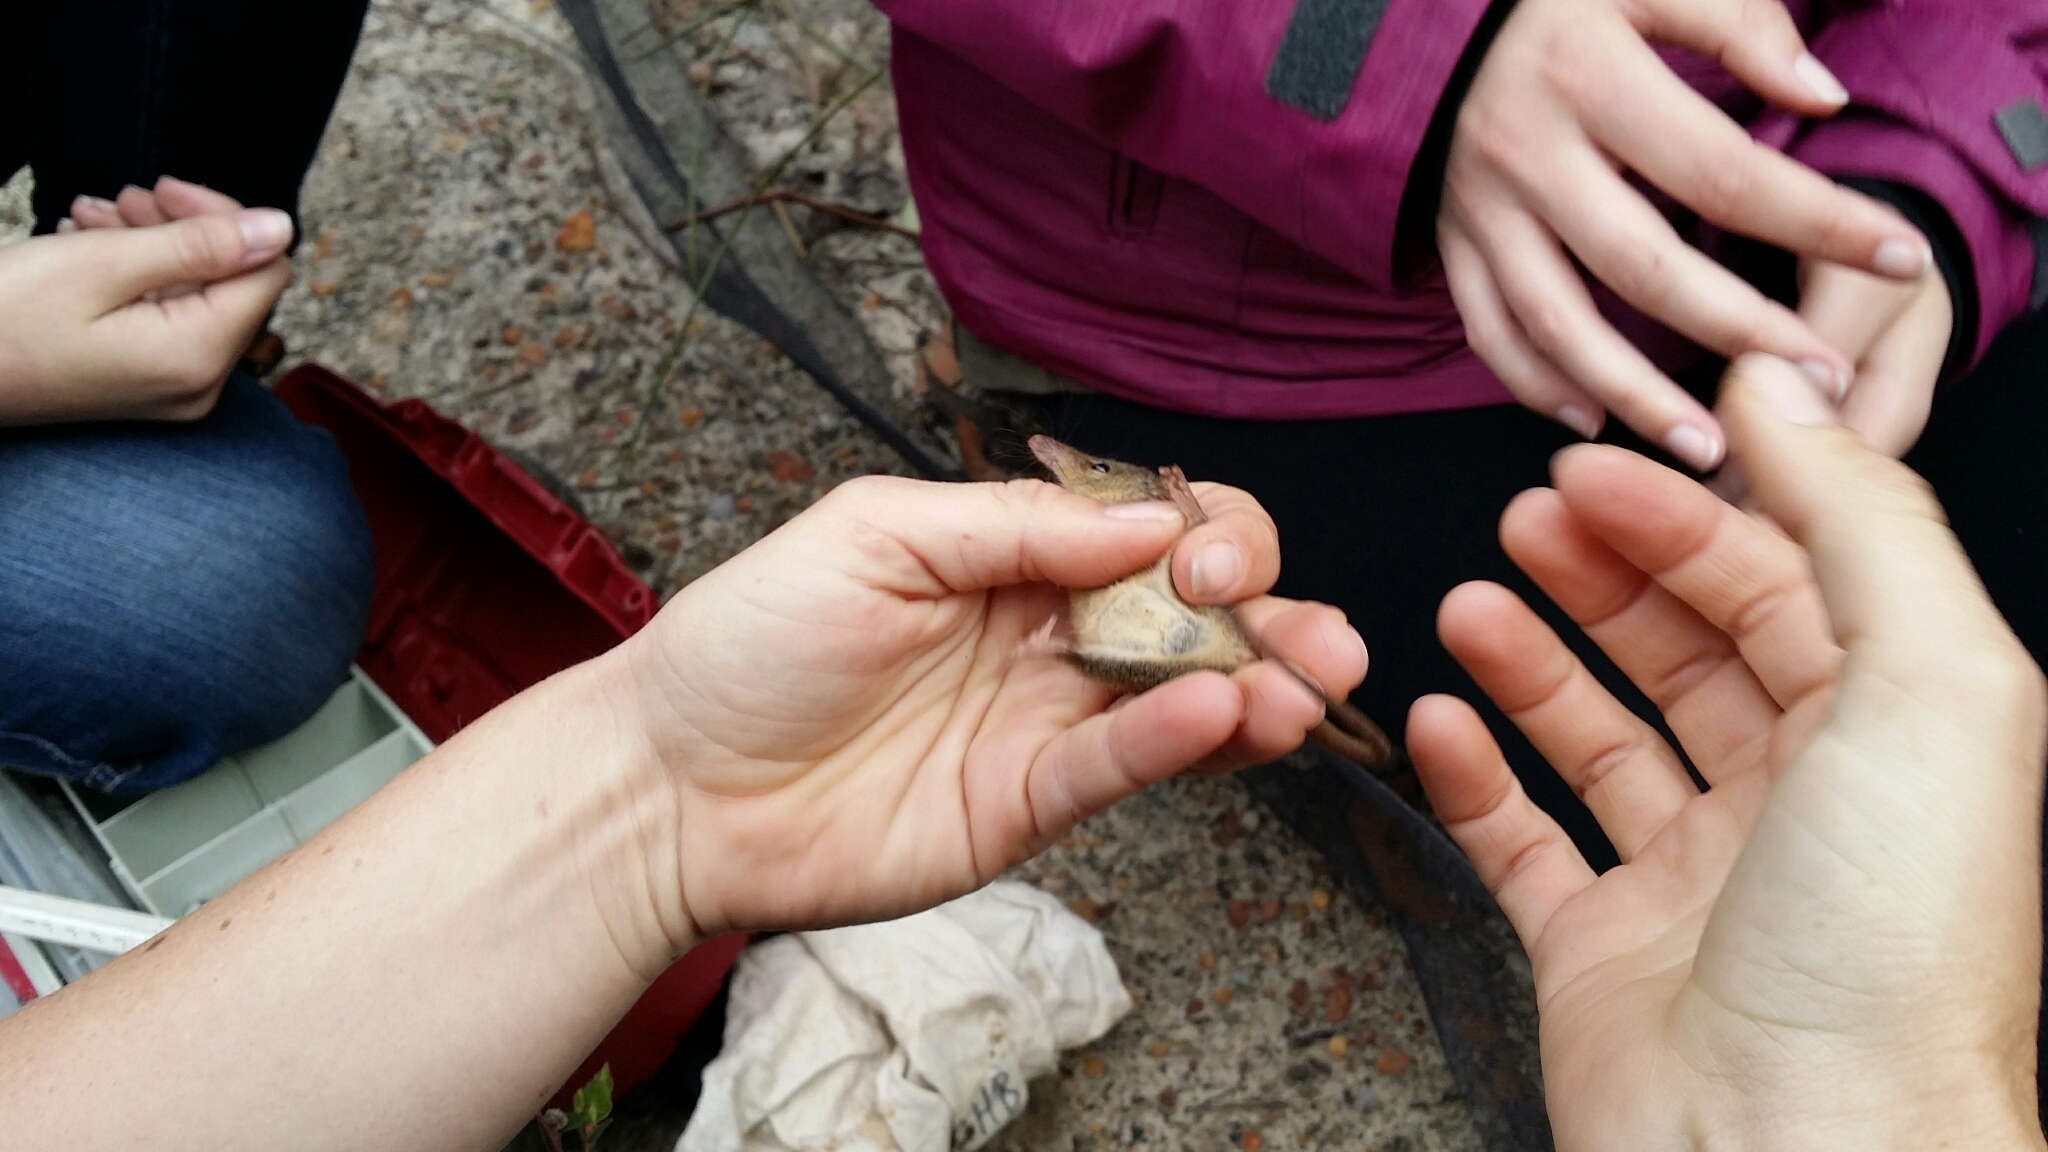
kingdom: Animalia
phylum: Chordata
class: Mammalia
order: Diprotodontia
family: Tarsipedidae
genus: Tarsipes
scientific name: Tarsipes rostratus
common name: Honey possum
